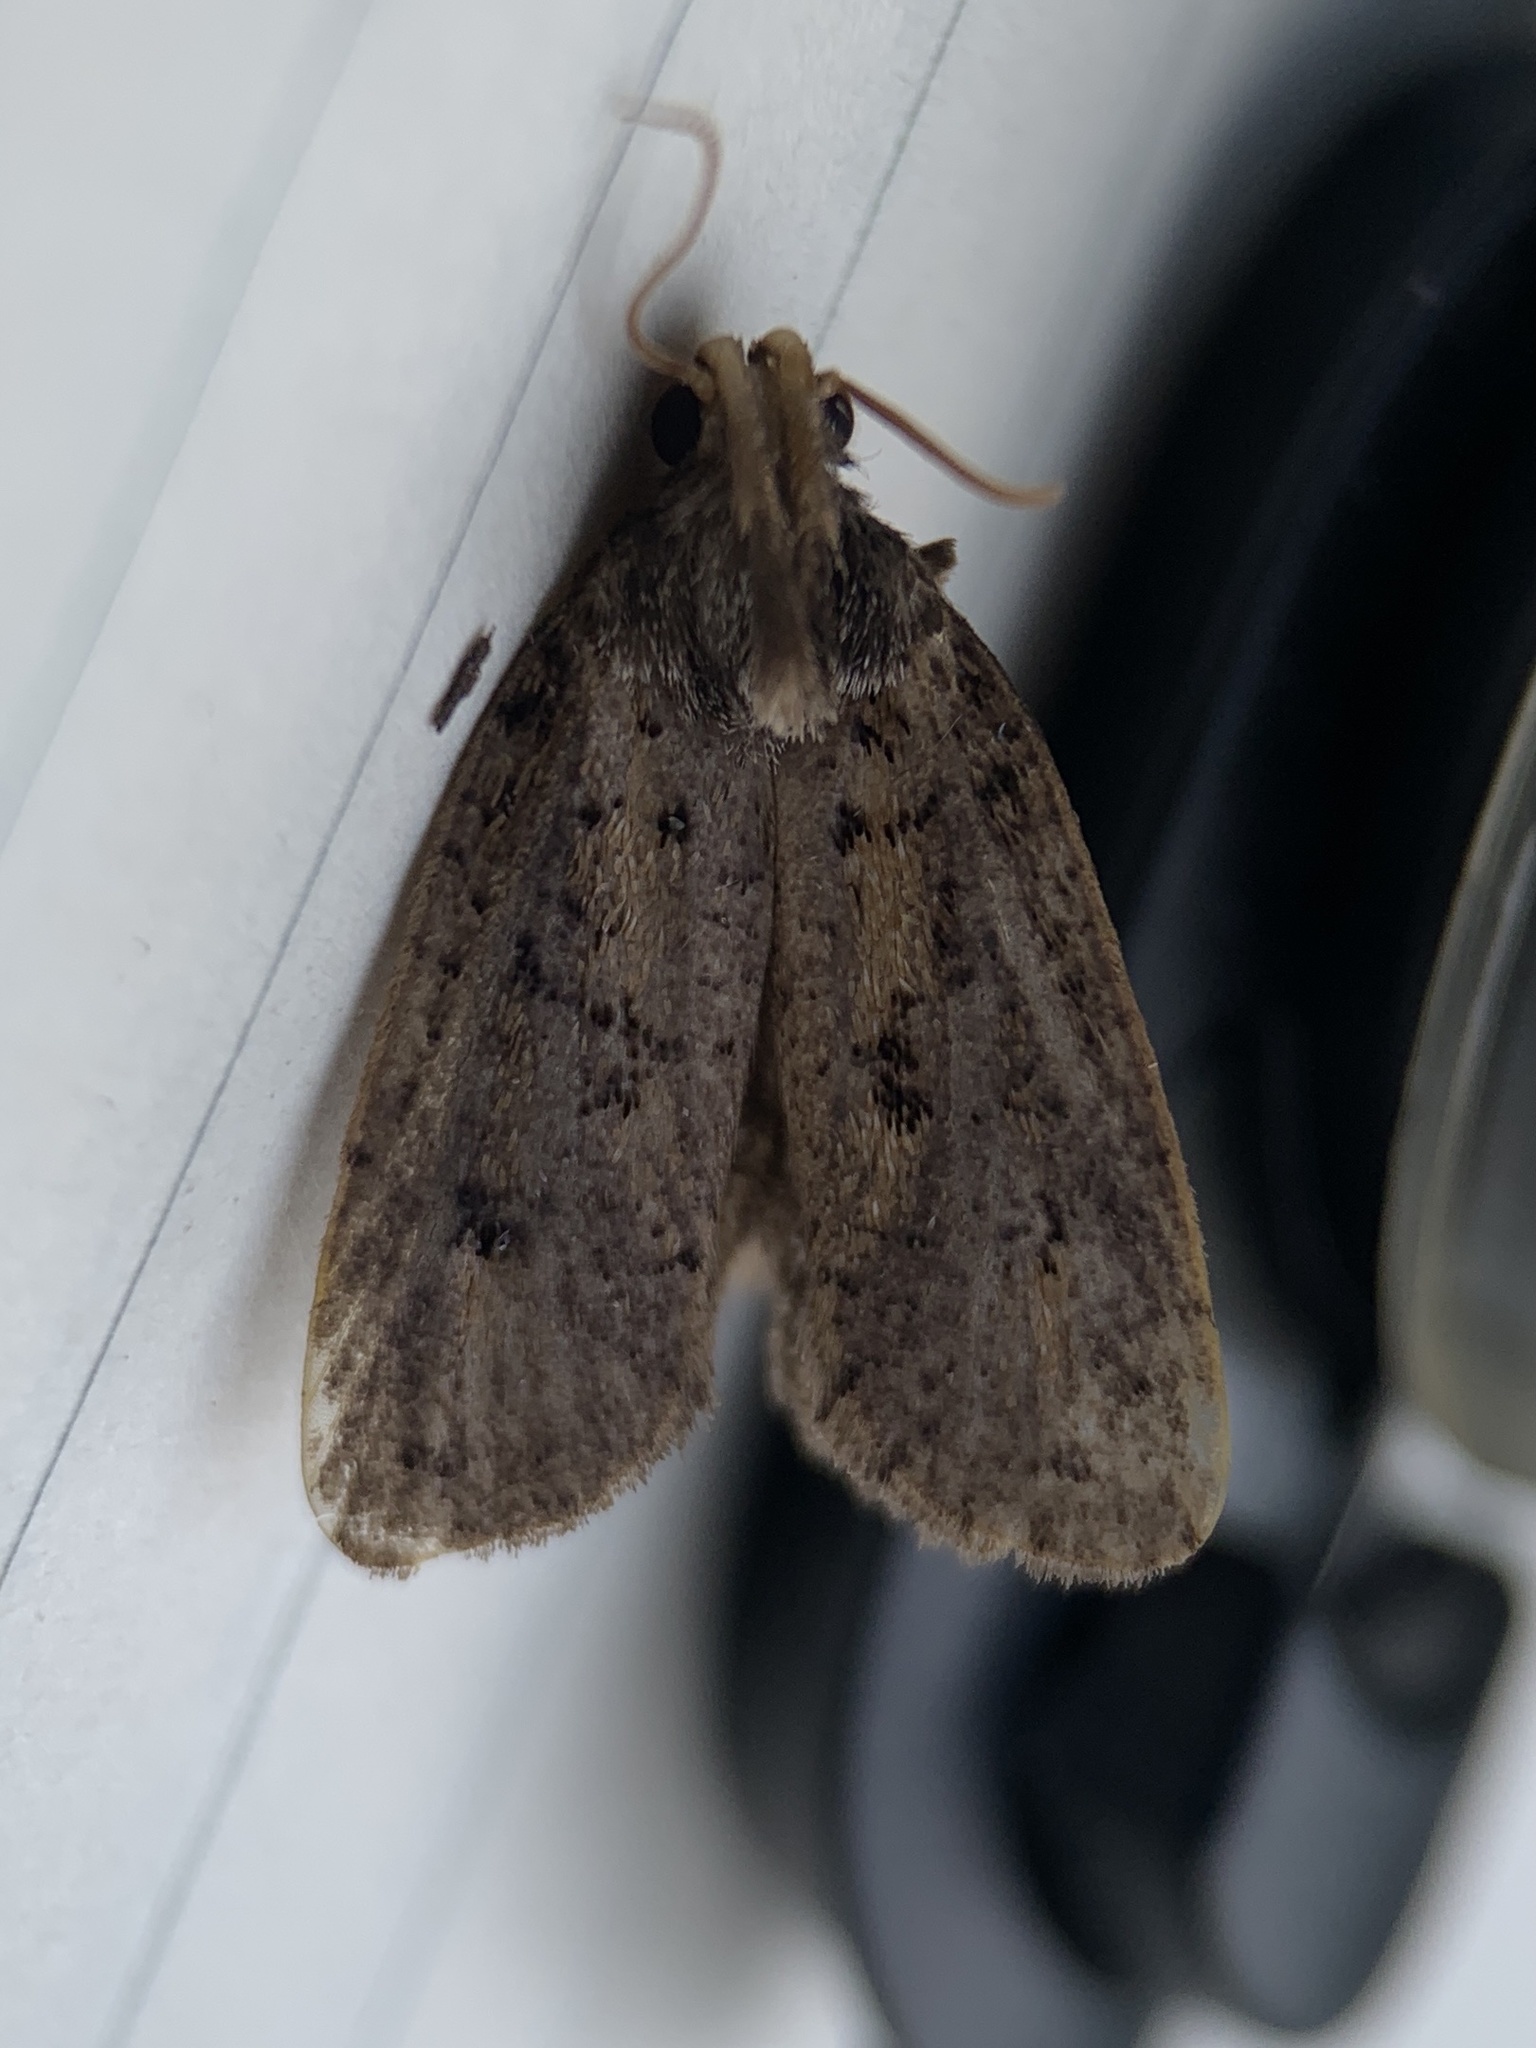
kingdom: Animalia
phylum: Arthropoda
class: Insecta
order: Lepidoptera
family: Tineidae
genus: Acrolophus
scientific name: Acrolophus popeanella
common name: Clemens' grass tubeworm moth
